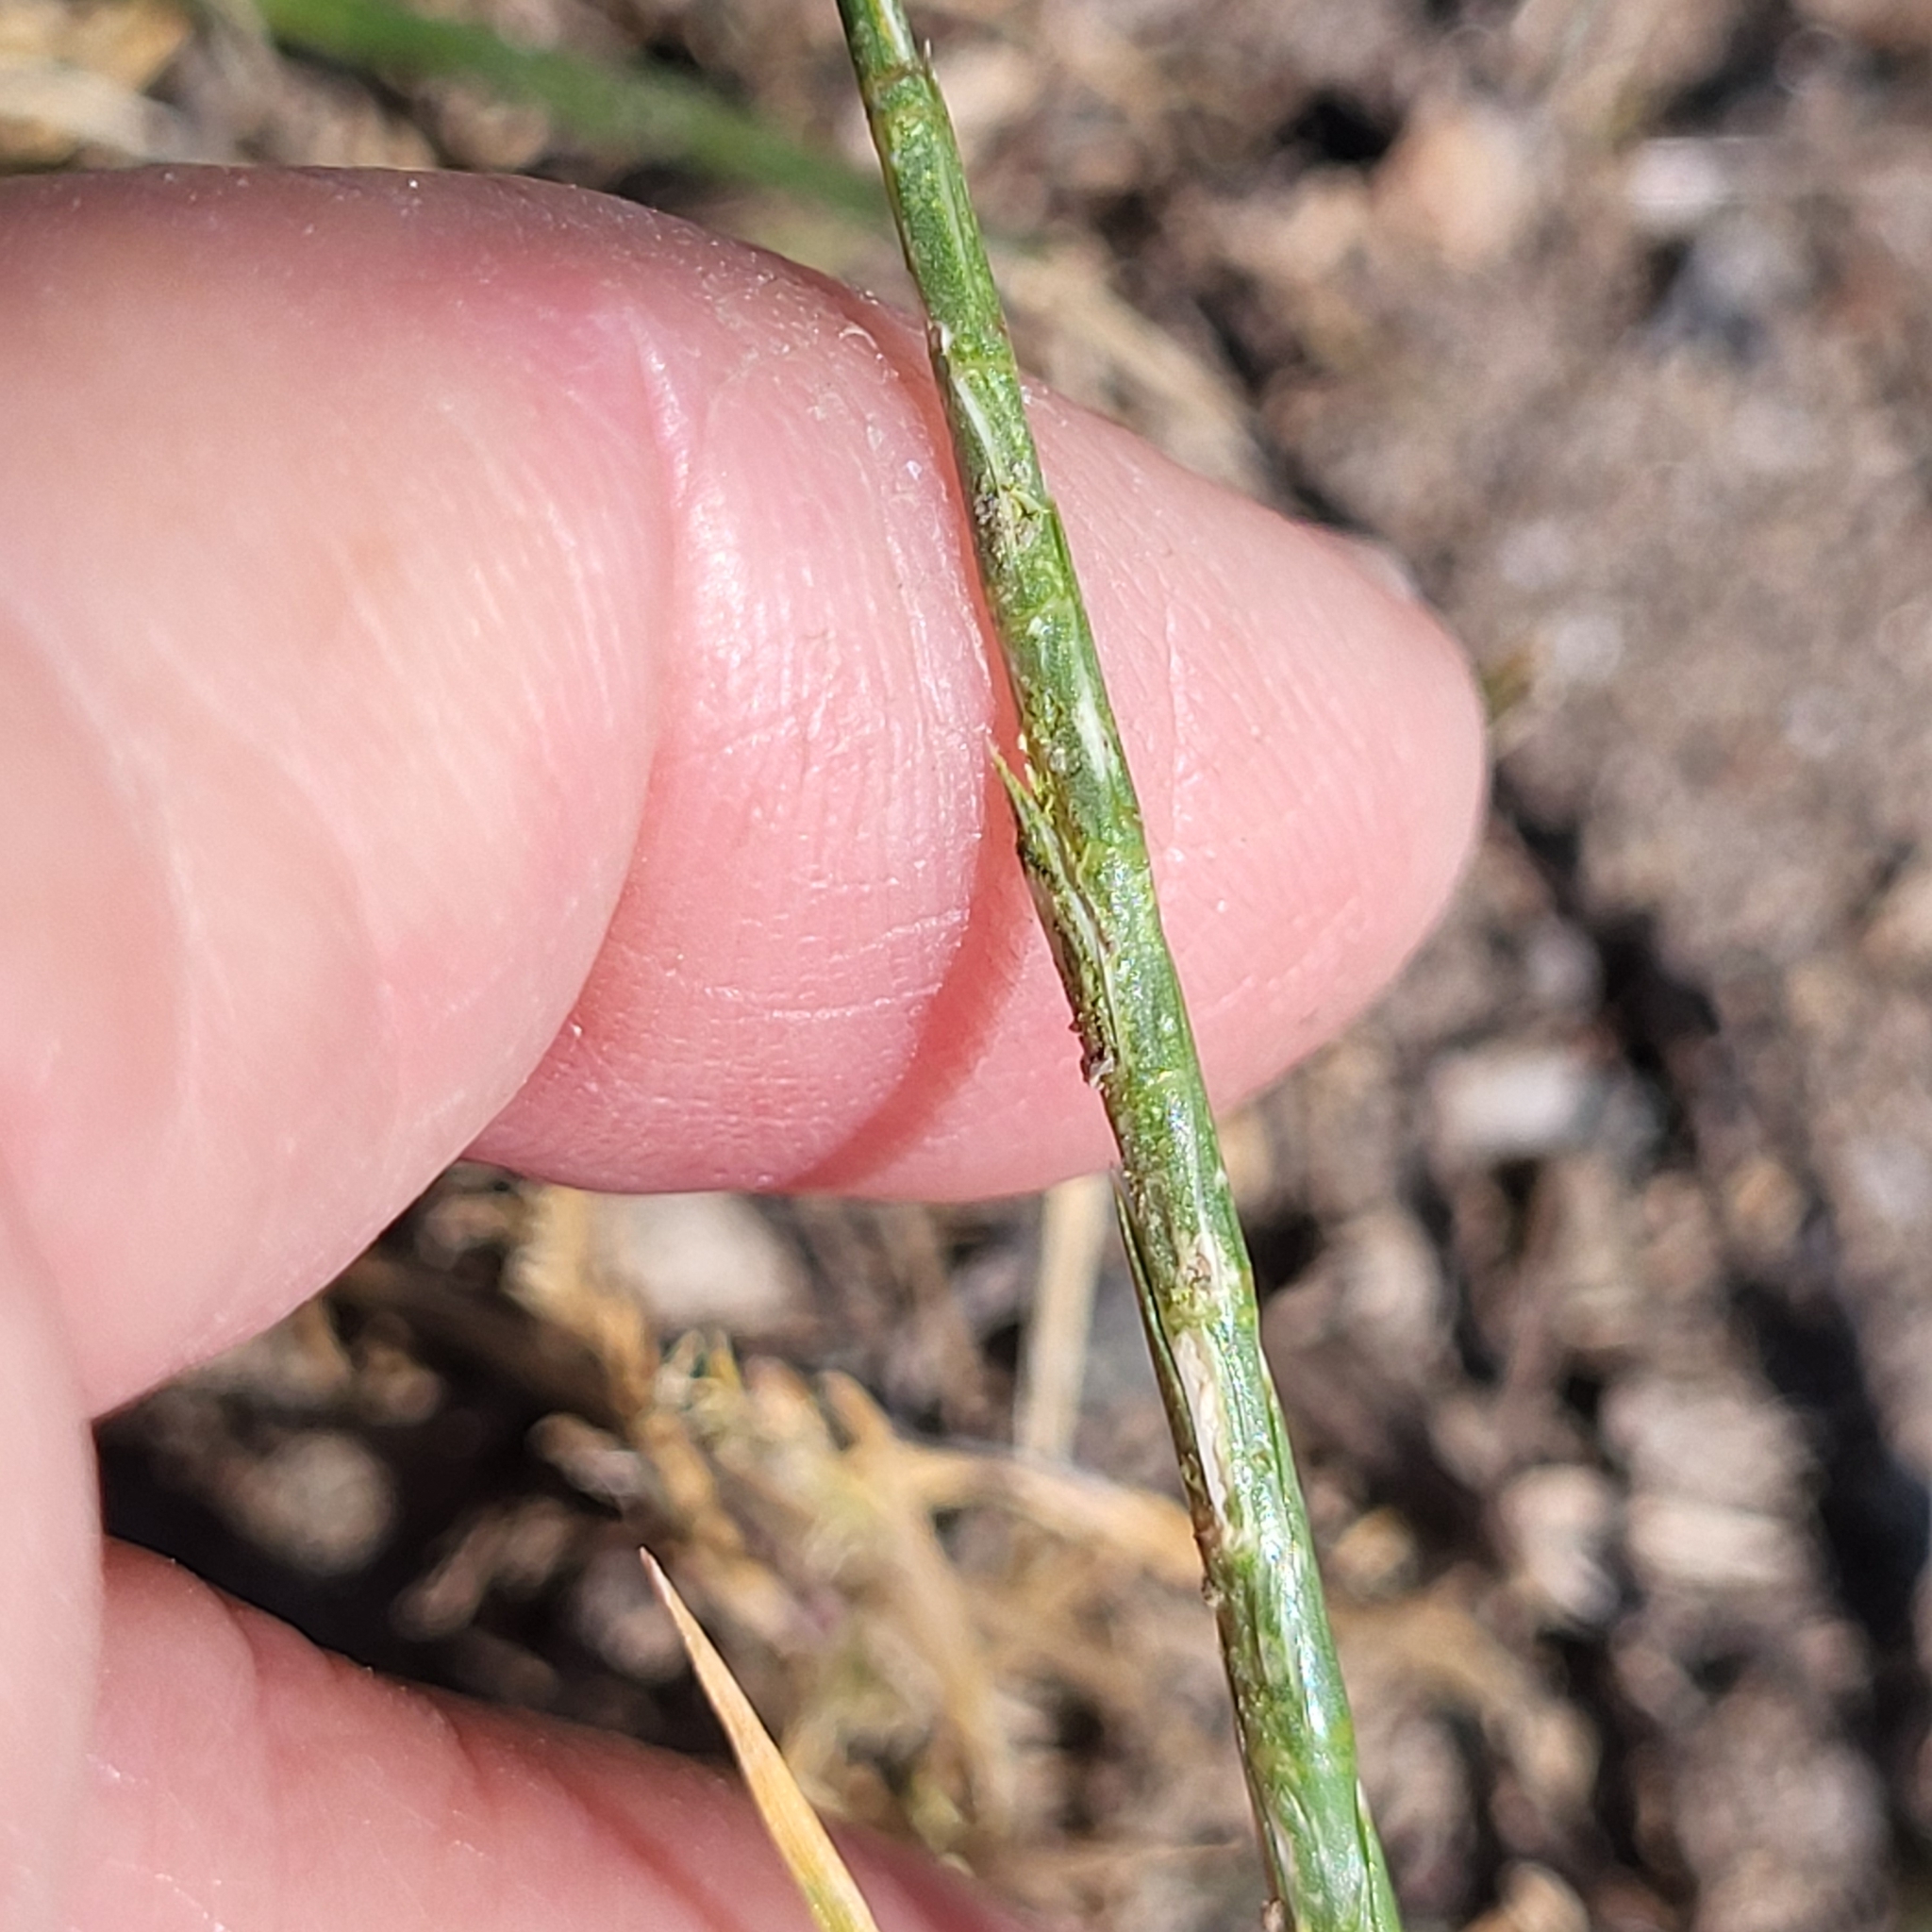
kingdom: Plantae
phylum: Tracheophyta
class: Liliopsida
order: Poales
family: Poaceae
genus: Parapholis
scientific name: Parapholis cylindrica
